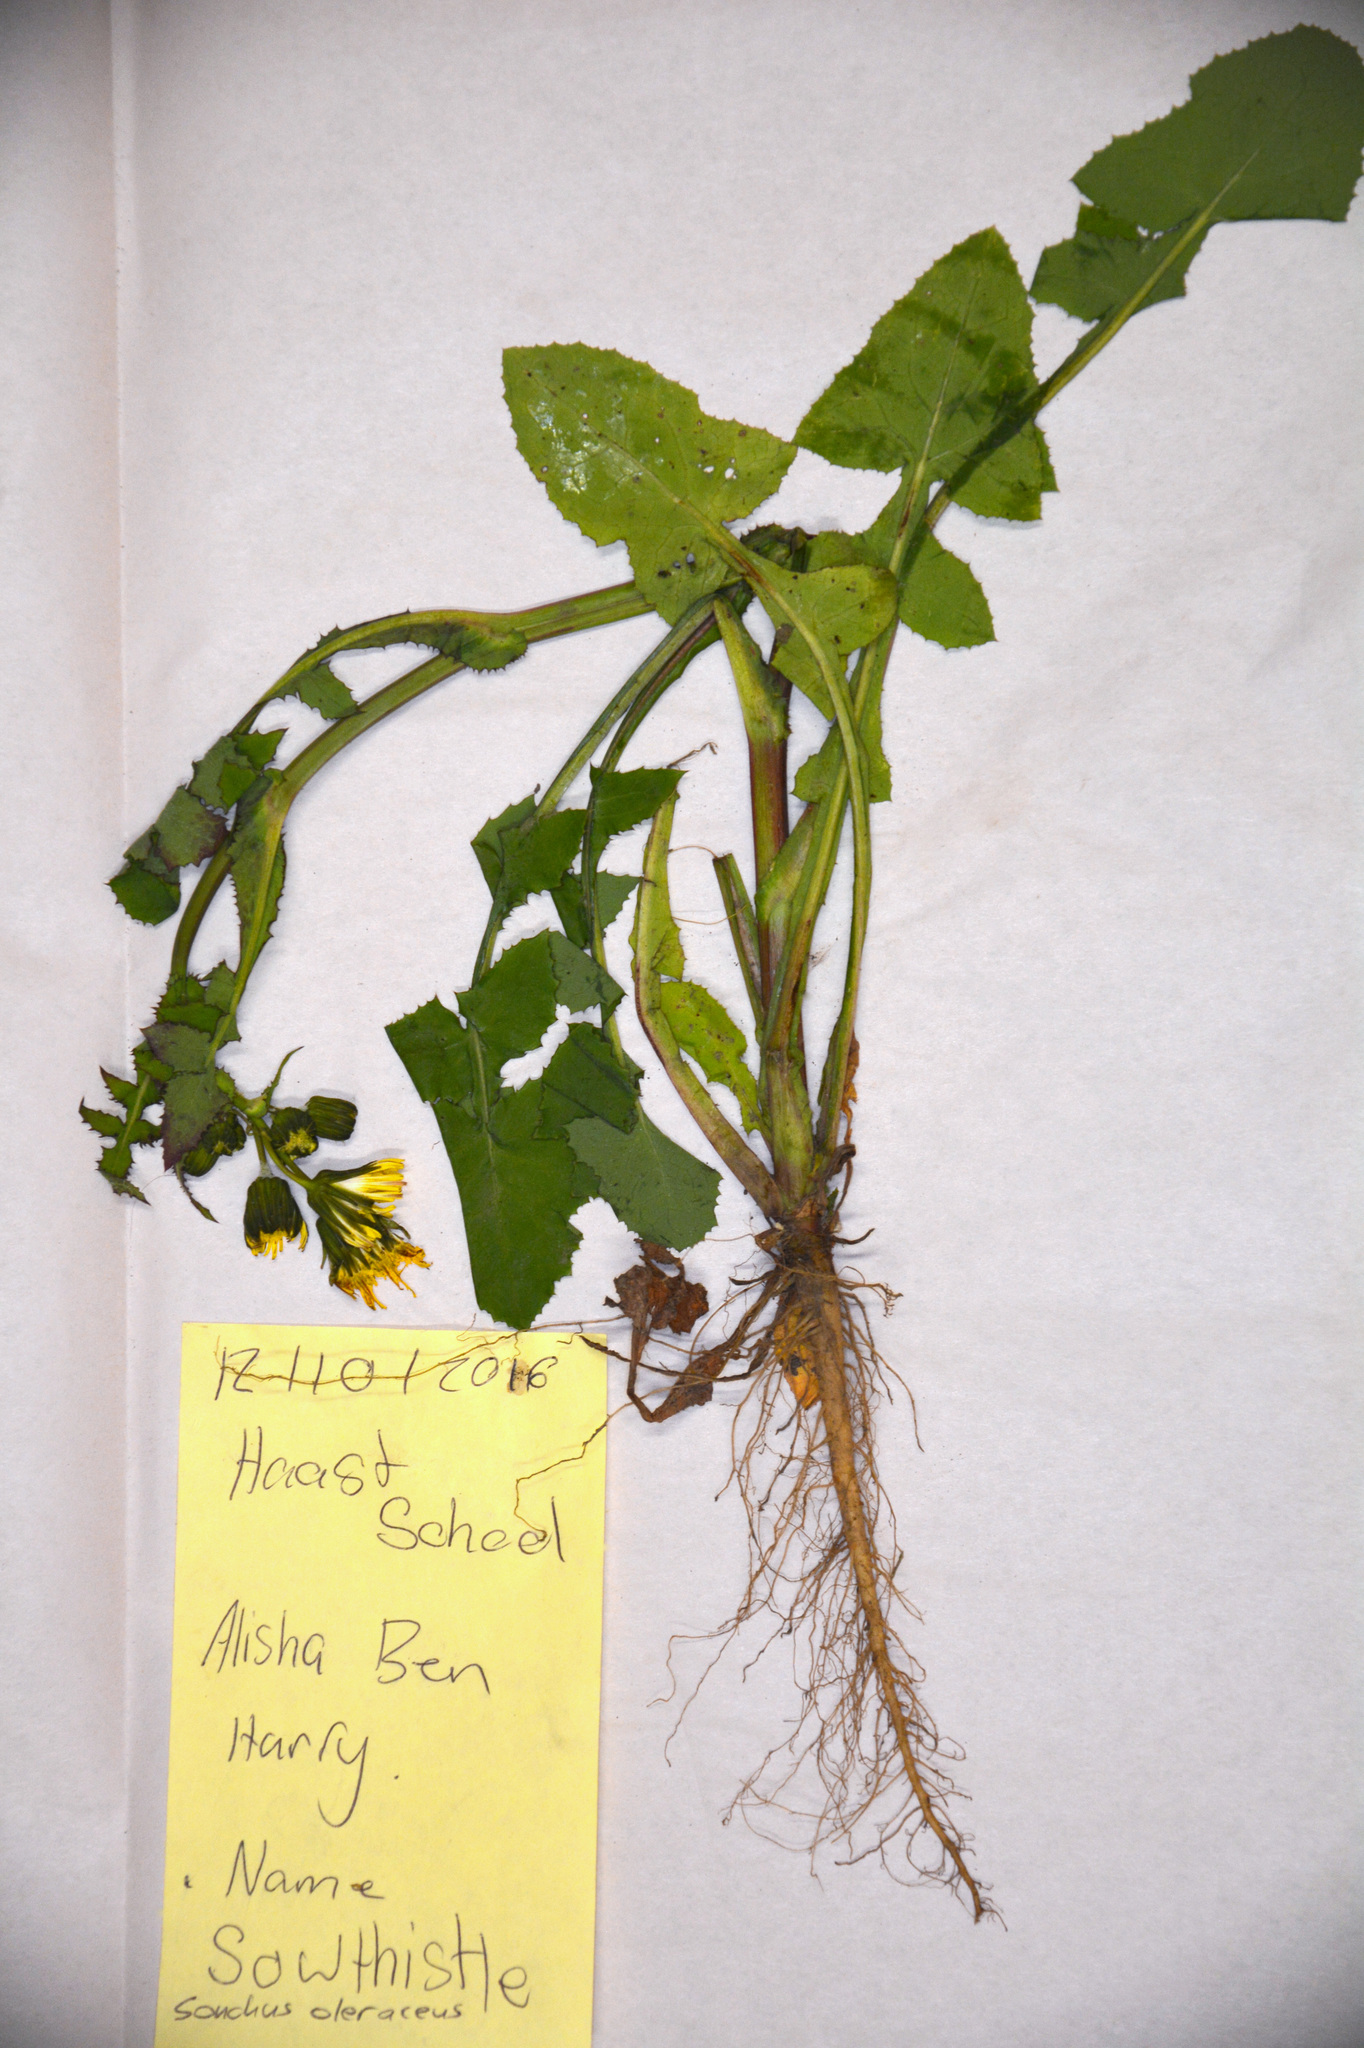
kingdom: Plantae
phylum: Tracheophyta
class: Magnoliopsida
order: Asterales
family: Asteraceae
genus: Sonchus
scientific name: Sonchus oleraceus
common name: Common sowthistle
